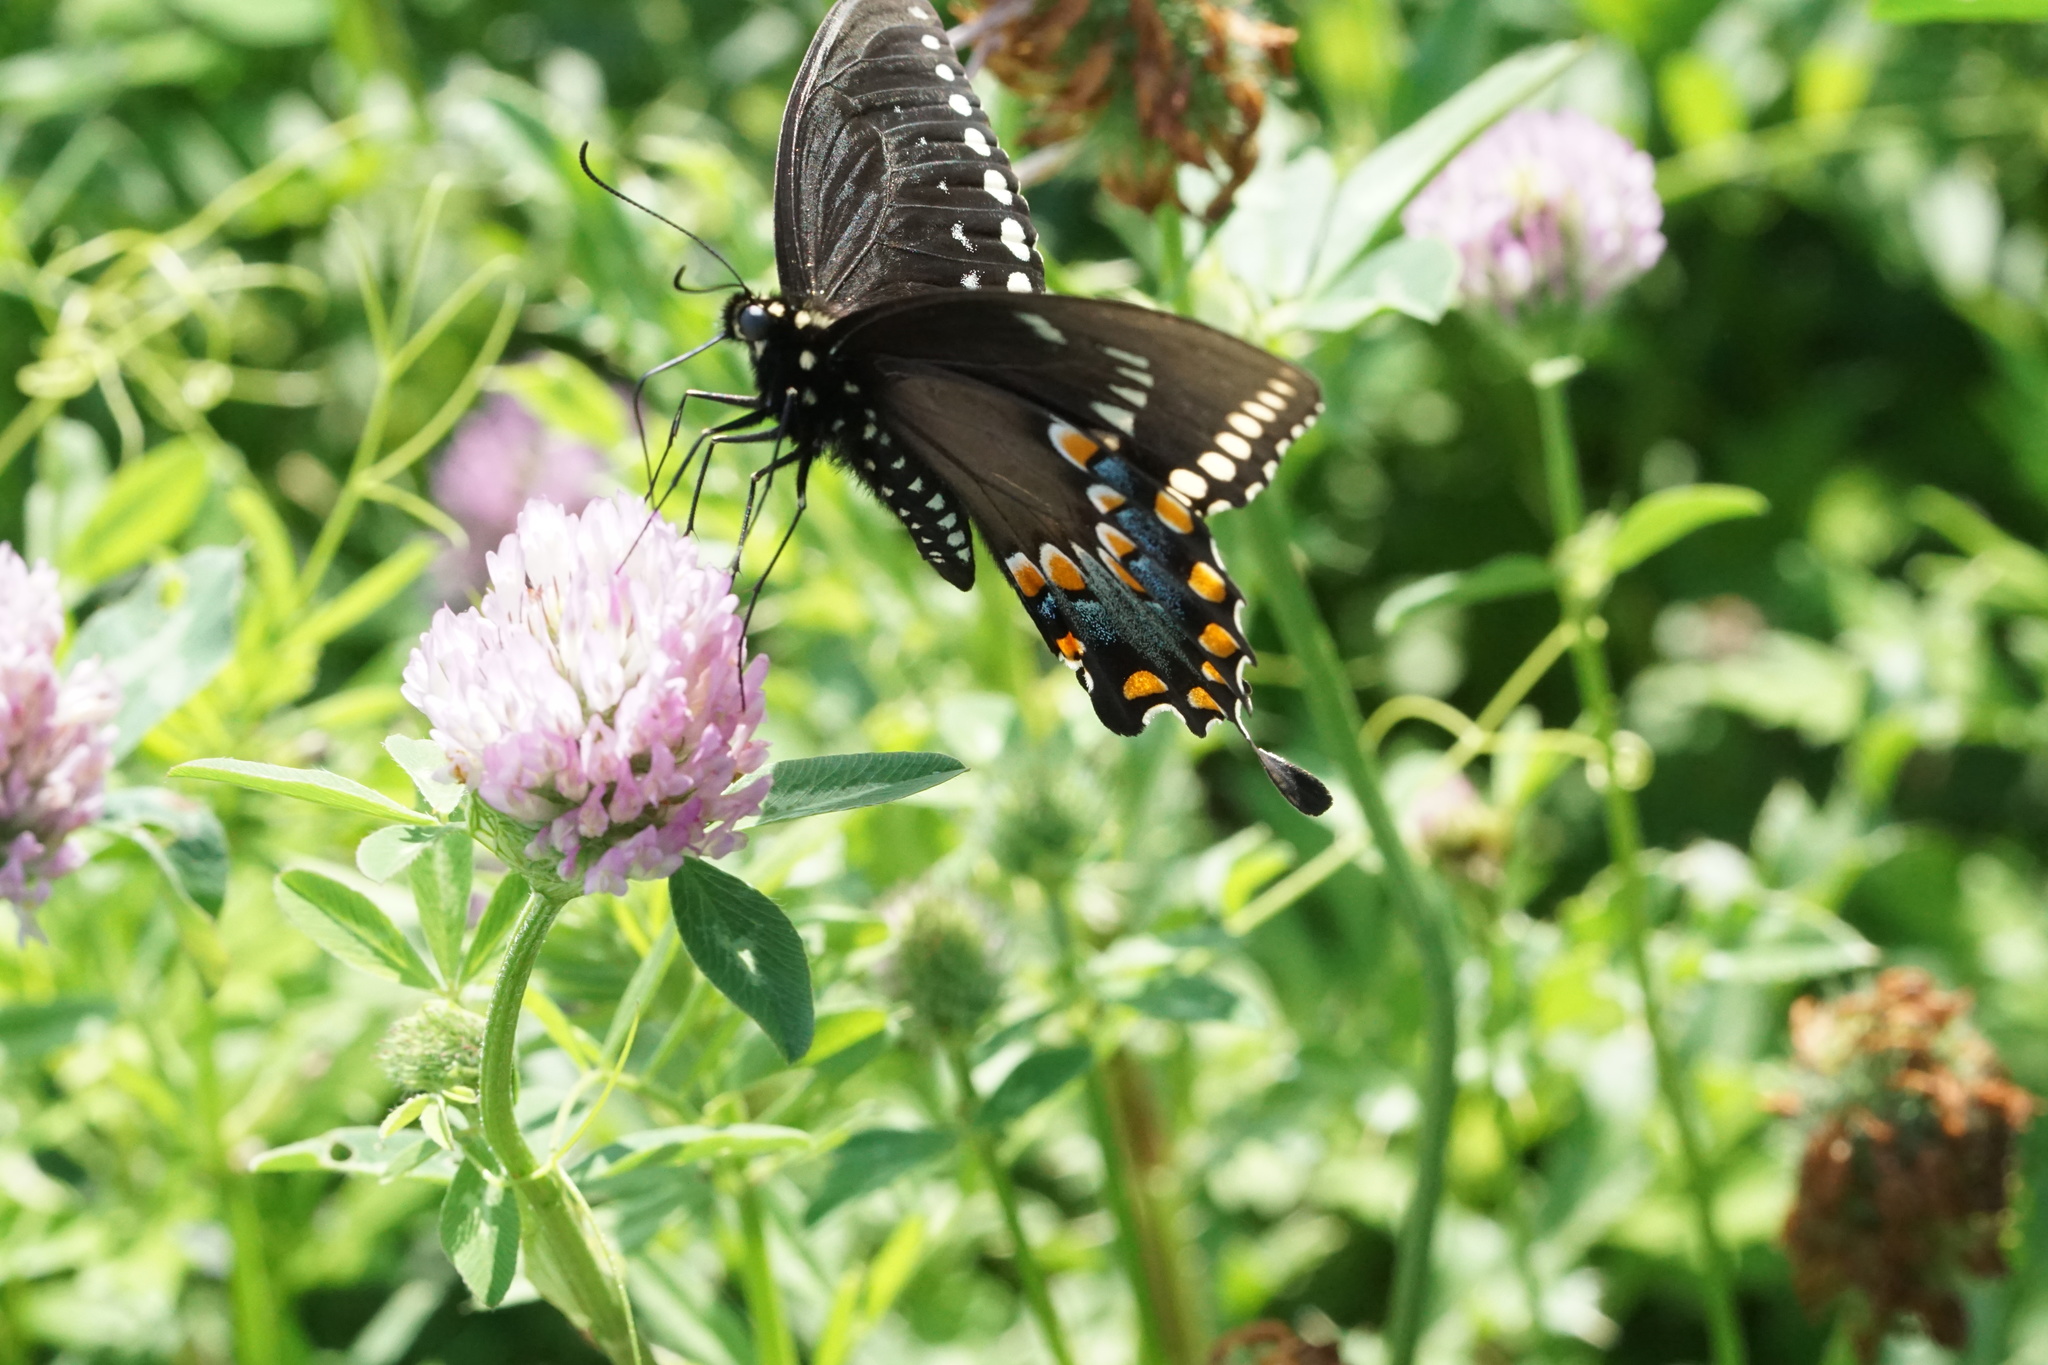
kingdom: Animalia
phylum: Arthropoda
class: Insecta
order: Lepidoptera
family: Papilionidae
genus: Papilio
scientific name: Papilio troilus
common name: Spicebush swallowtail
